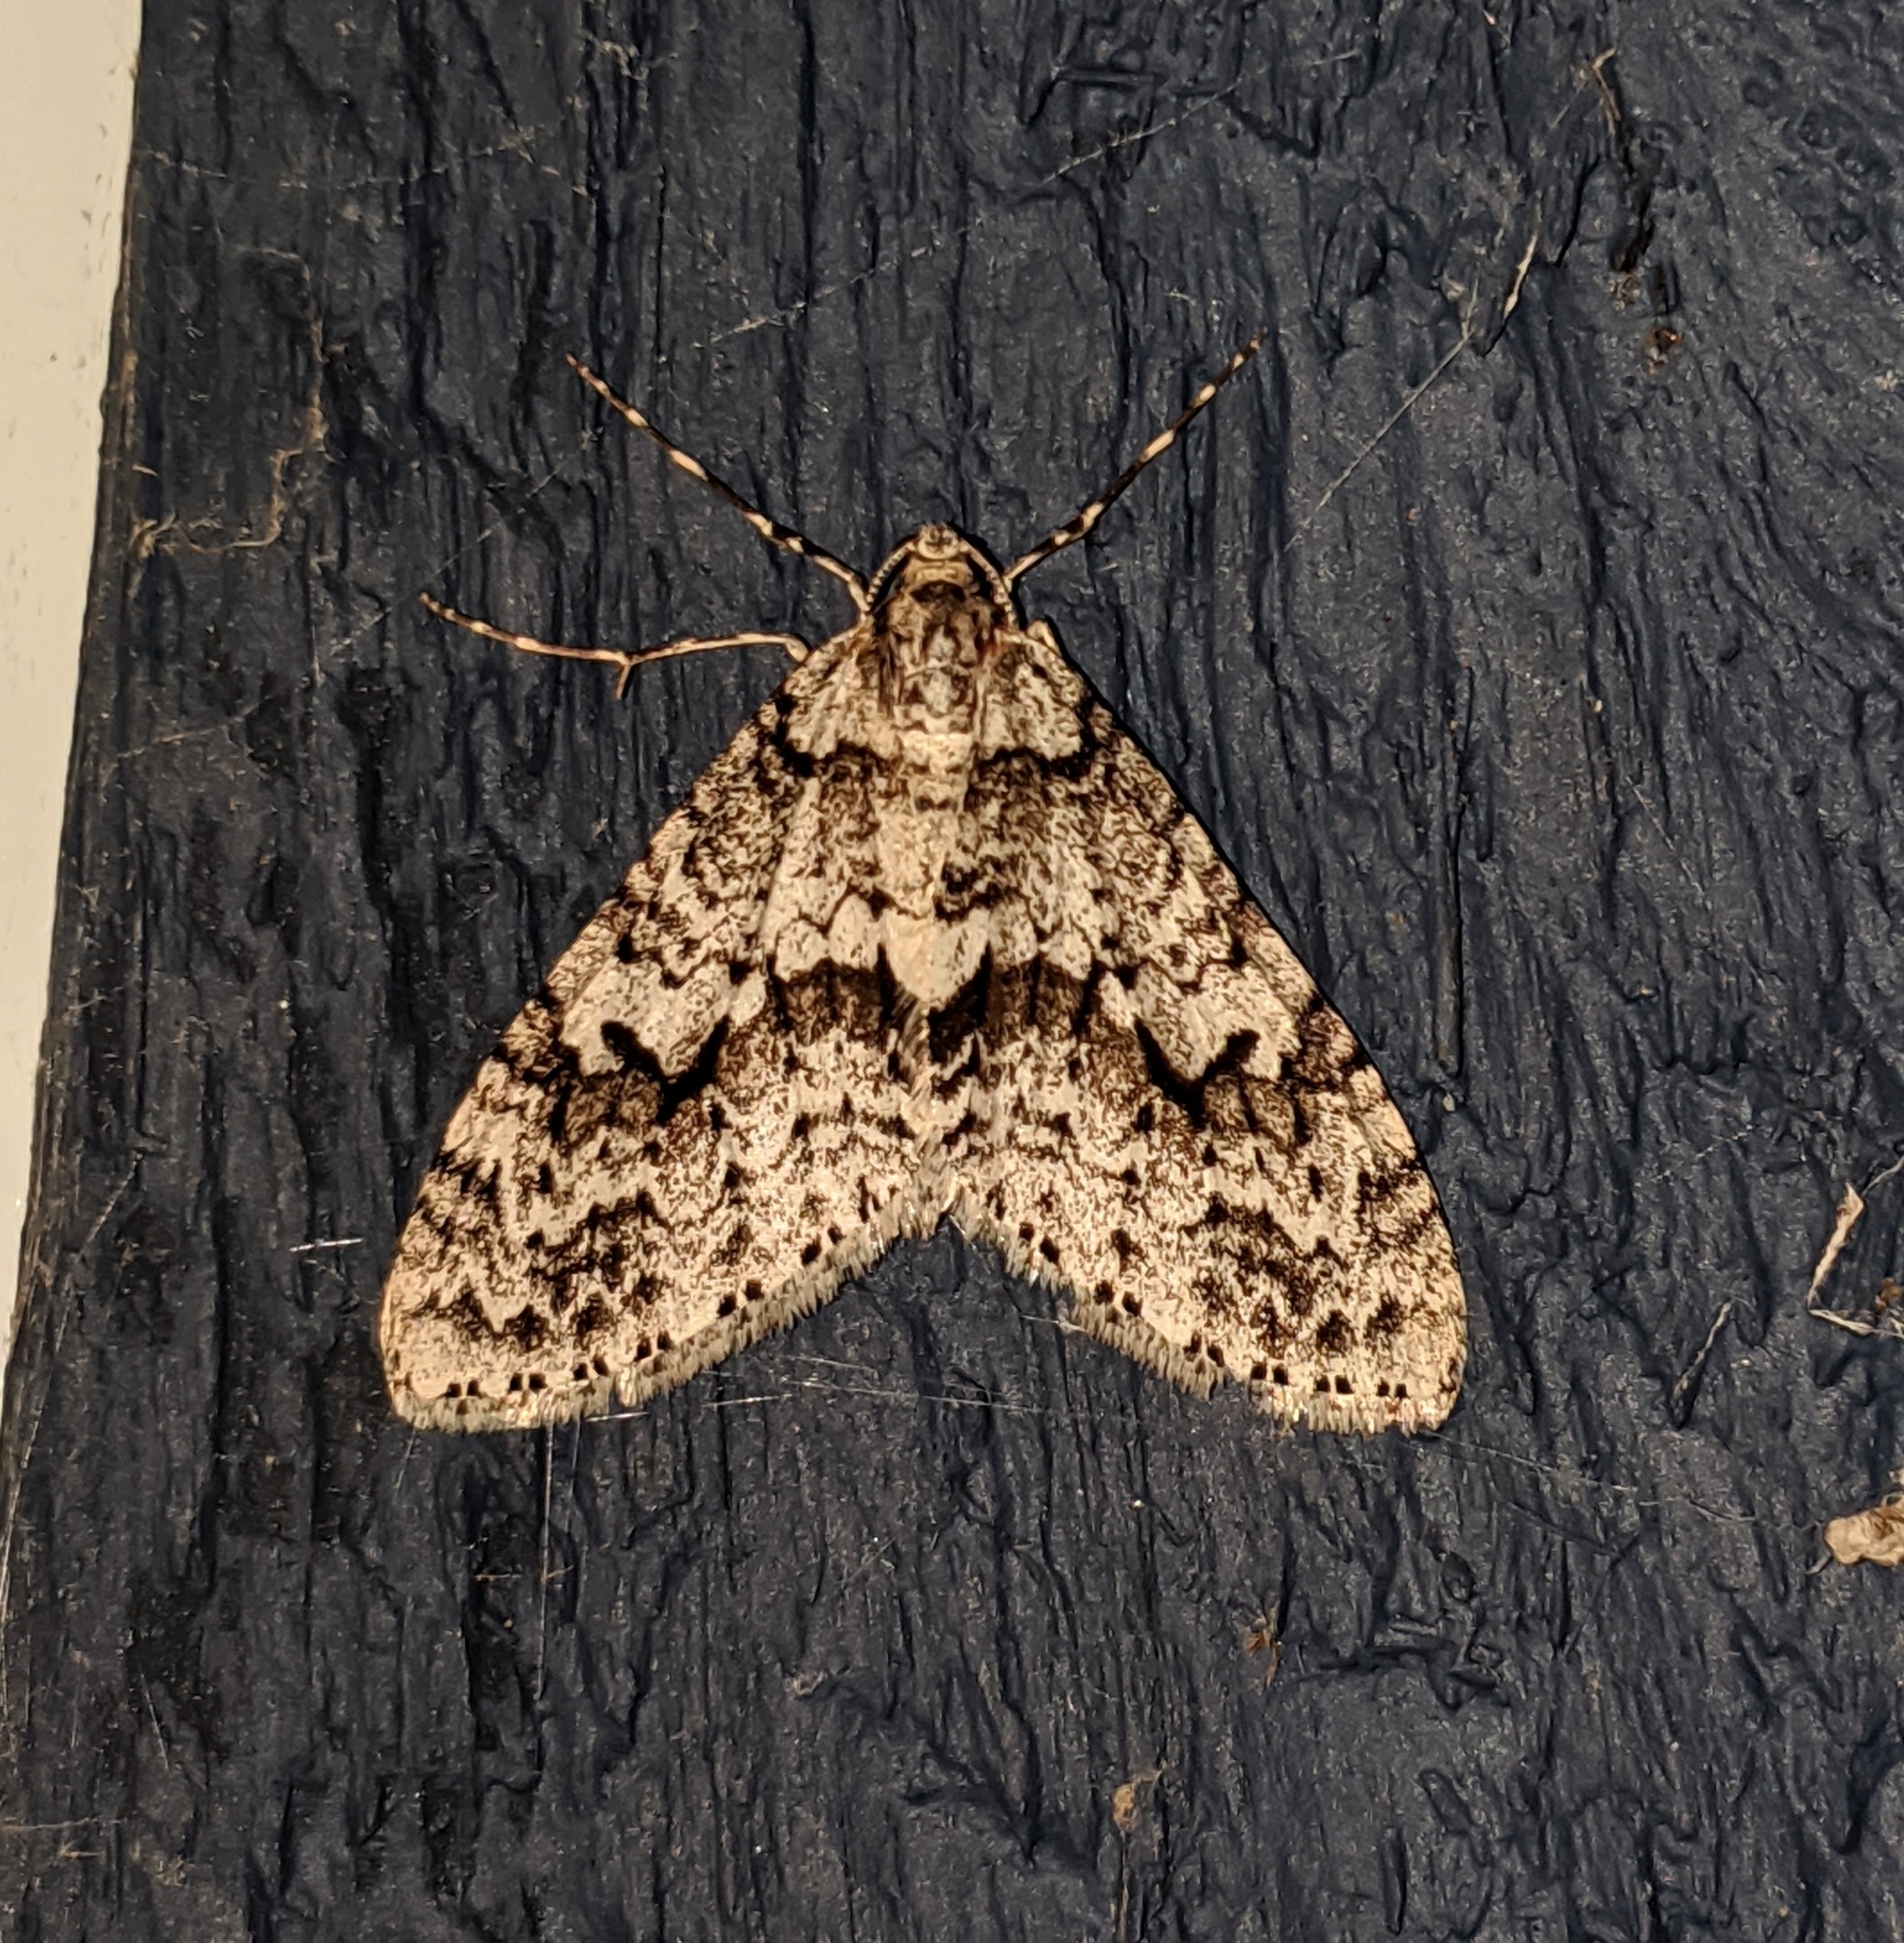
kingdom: Animalia
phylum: Arthropoda
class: Insecta
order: Lepidoptera
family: Geometridae
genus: Cladara
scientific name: Cladara limitaria
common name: Mottled gray carpet
